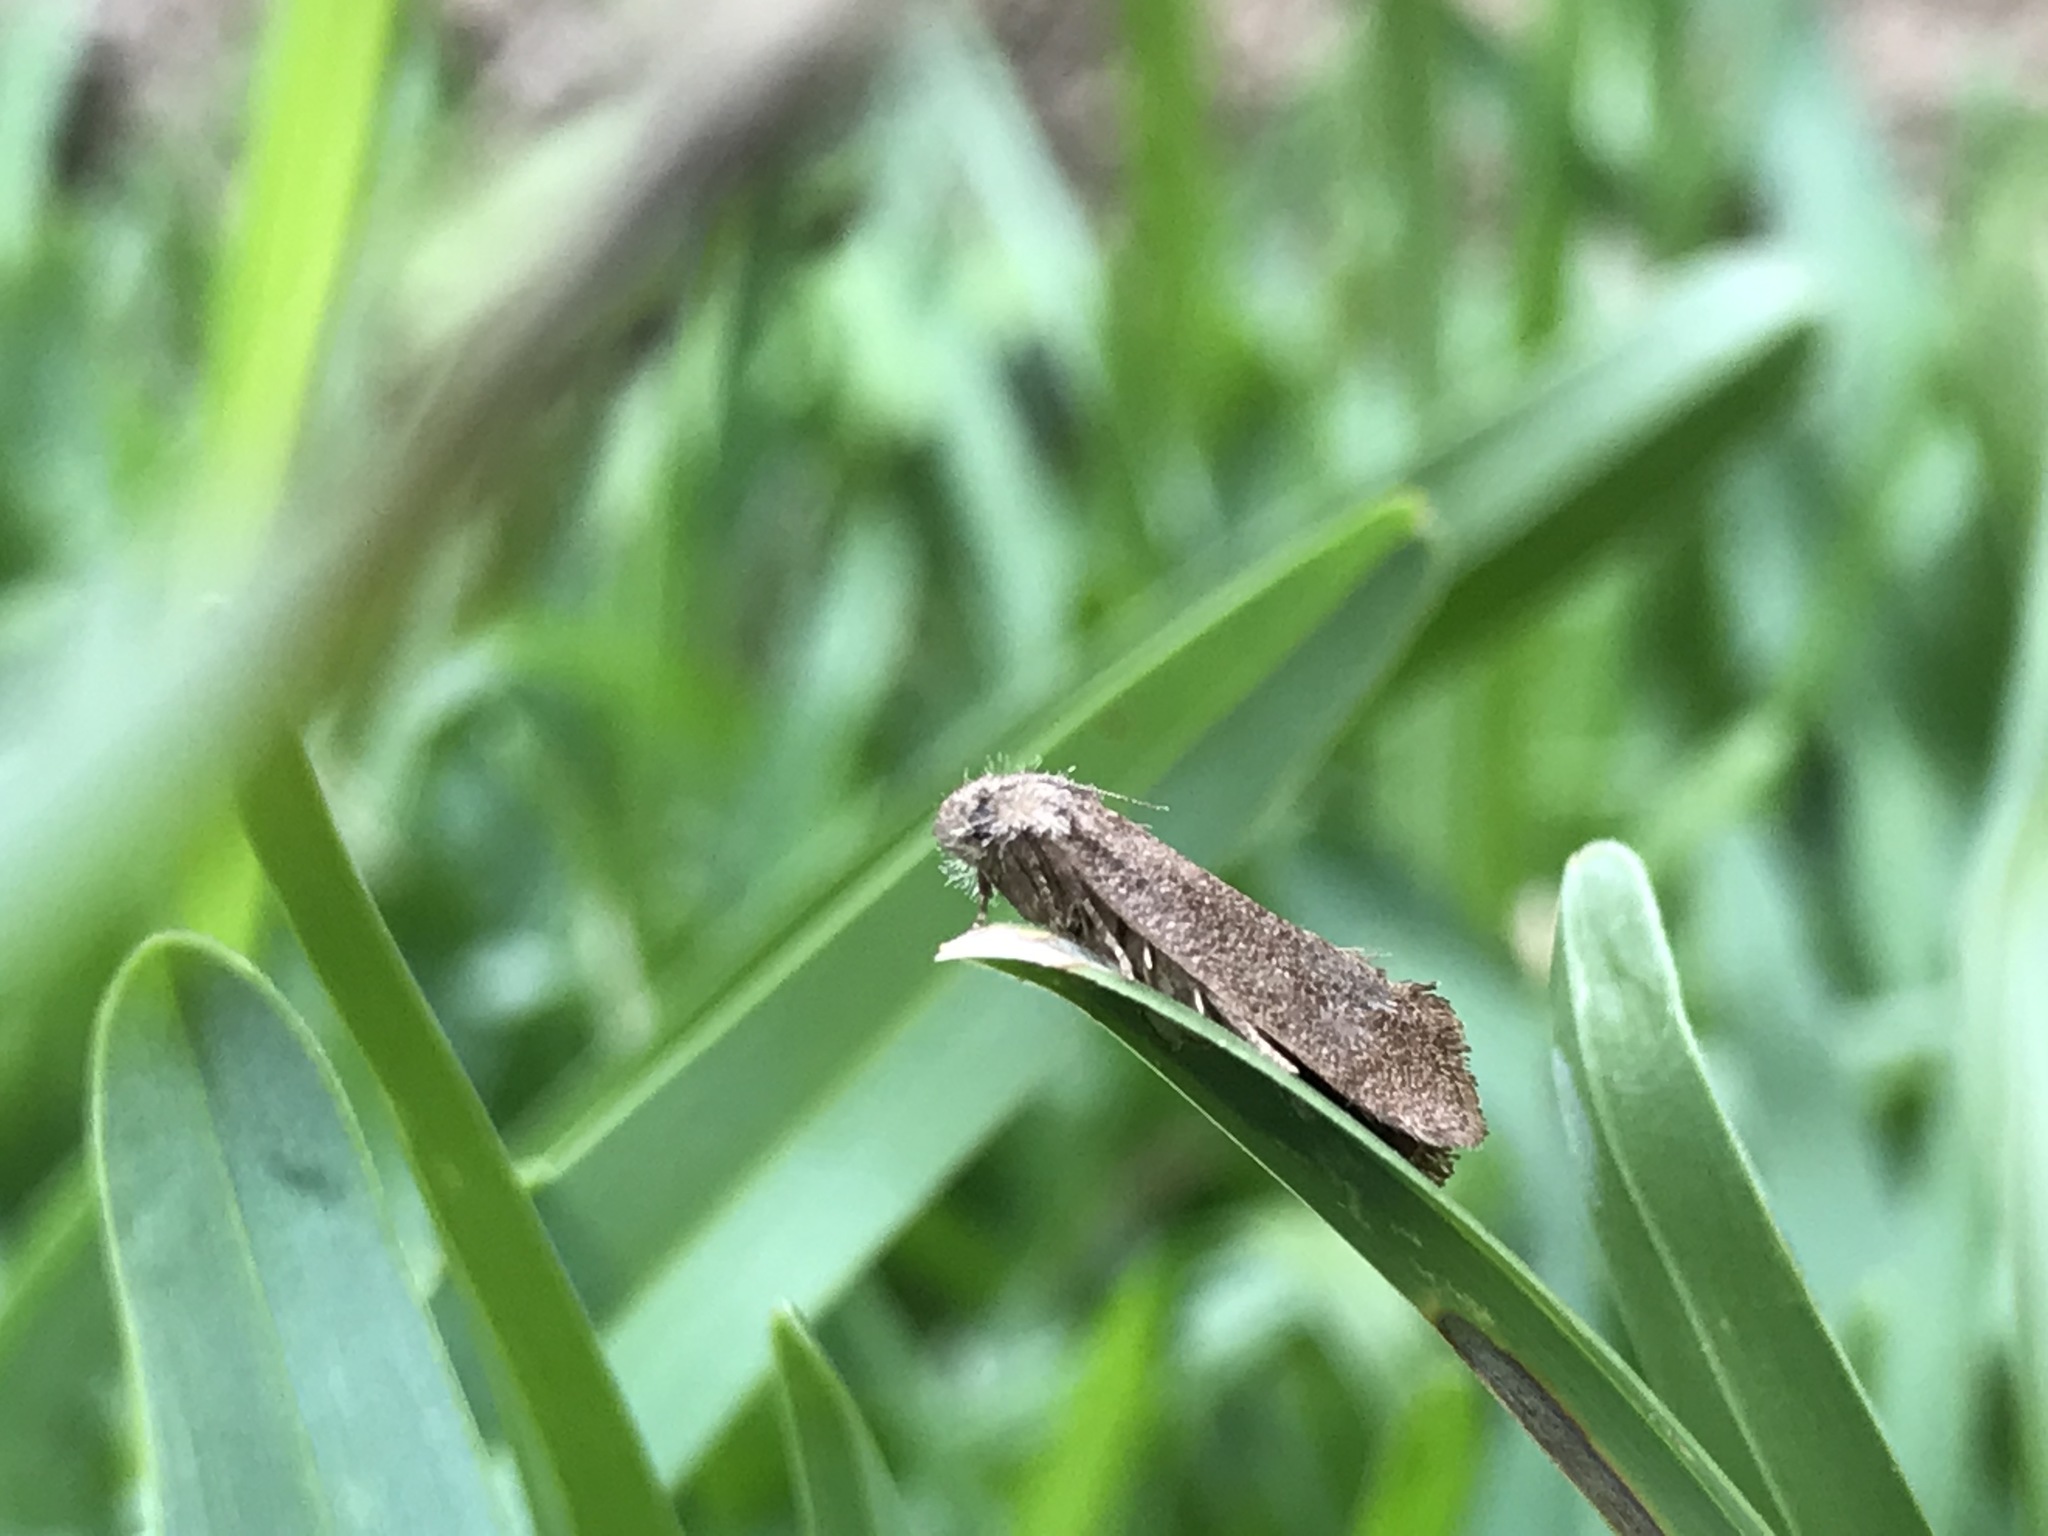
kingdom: Animalia
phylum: Arthropoda
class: Insecta
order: Lepidoptera
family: Tineidae
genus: Acrolophus
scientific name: Acrolophus heppneri
